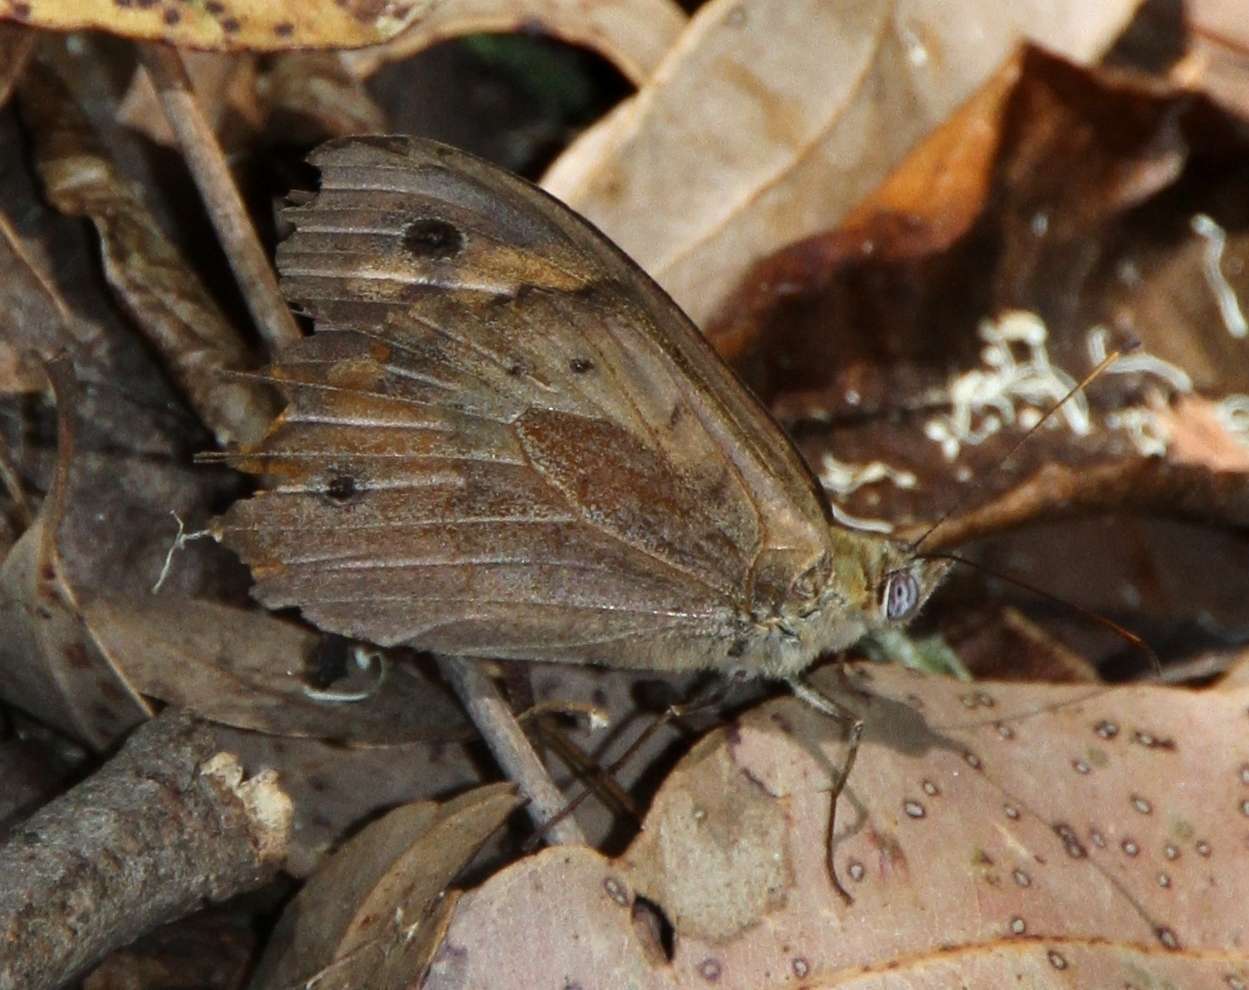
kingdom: Animalia
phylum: Arthropoda
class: Insecta
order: Lepidoptera
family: Nymphalidae
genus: Heteronympha
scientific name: Heteronympha merope
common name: Common brown
